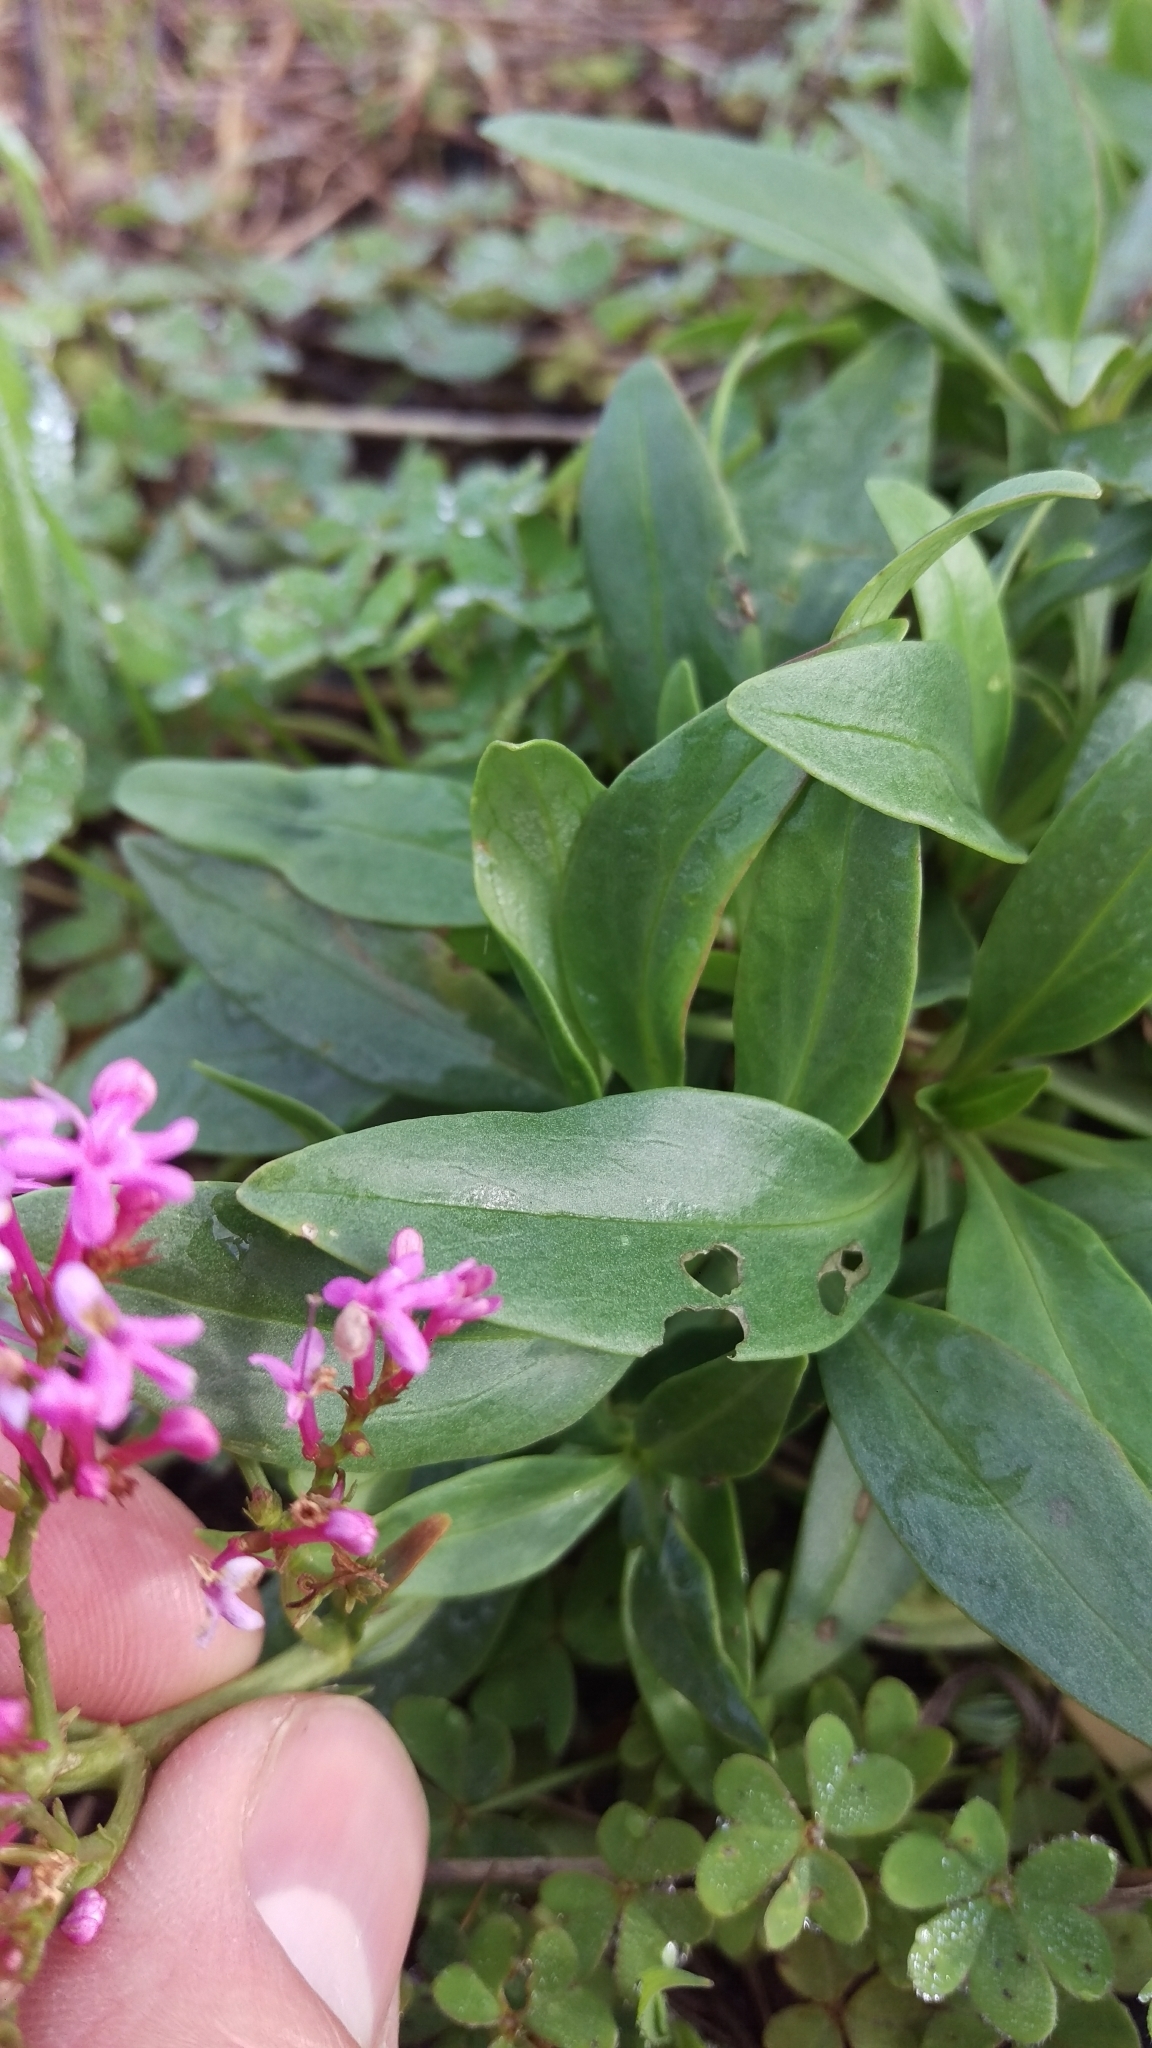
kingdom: Plantae
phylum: Tracheophyta
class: Magnoliopsida
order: Dipsacales
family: Caprifoliaceae
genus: Centranthus
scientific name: Centranthus ruber
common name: Red valerian
